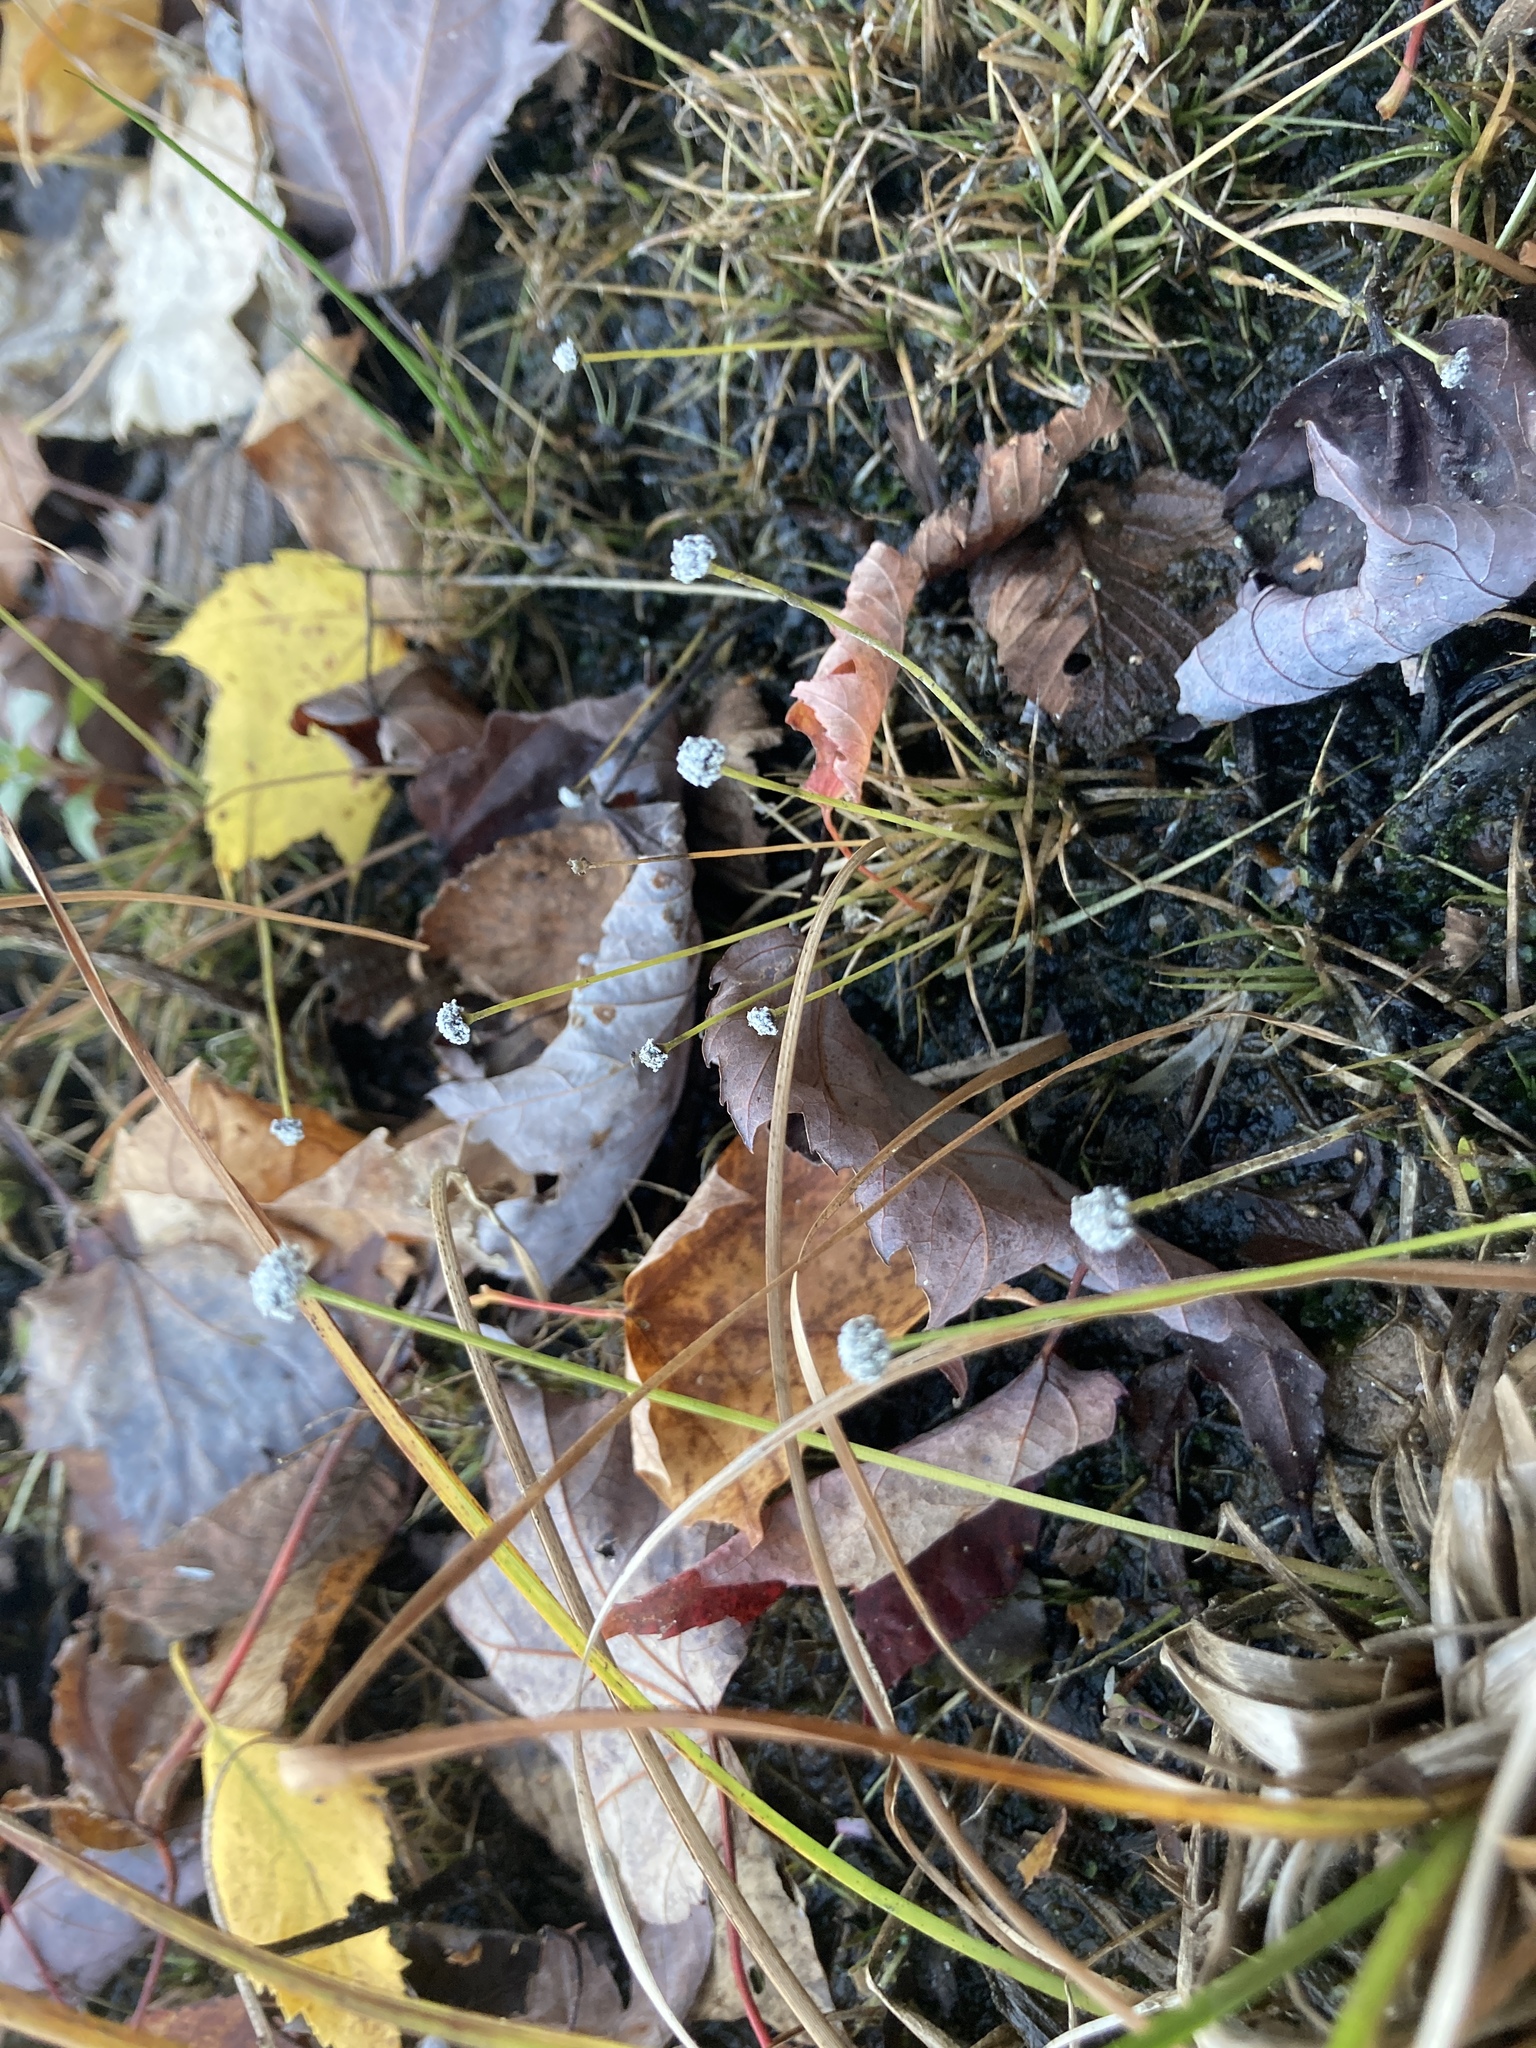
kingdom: Plantae
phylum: Tracheophyta
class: Liliopsida
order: Poales
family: Eriocaulaceae
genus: Eriocaulon
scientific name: Eriocaulon aquaticum
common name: Pipewort
